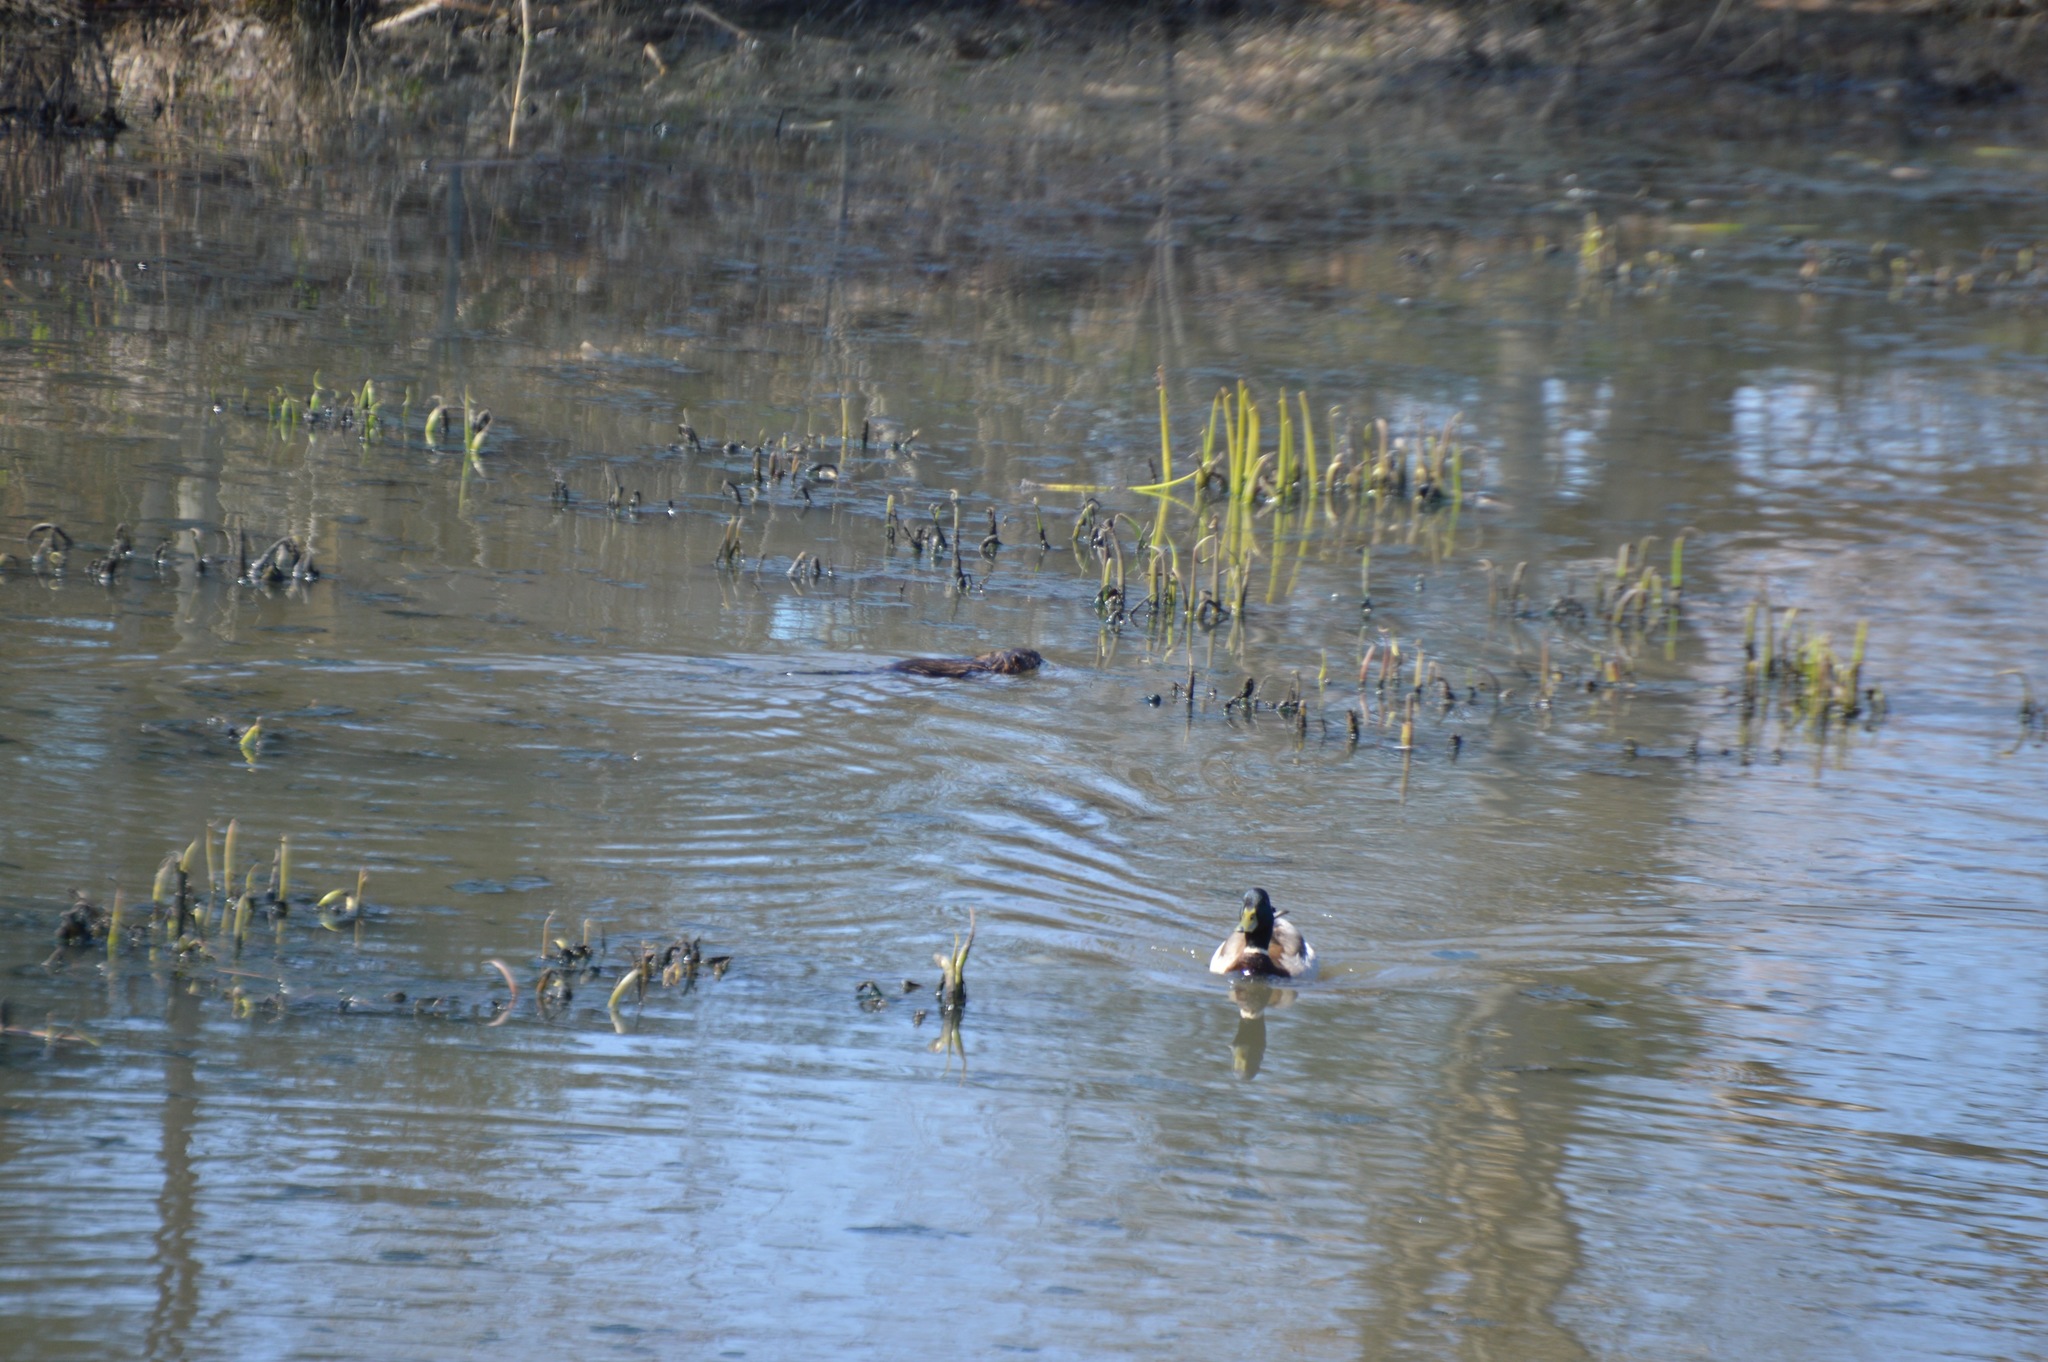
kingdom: Animalia
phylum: Chordata
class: Mammalia
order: Rodentia
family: Cricetidae
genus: Ondatra
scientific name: Ondatra zibethicus
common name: Muskrat
